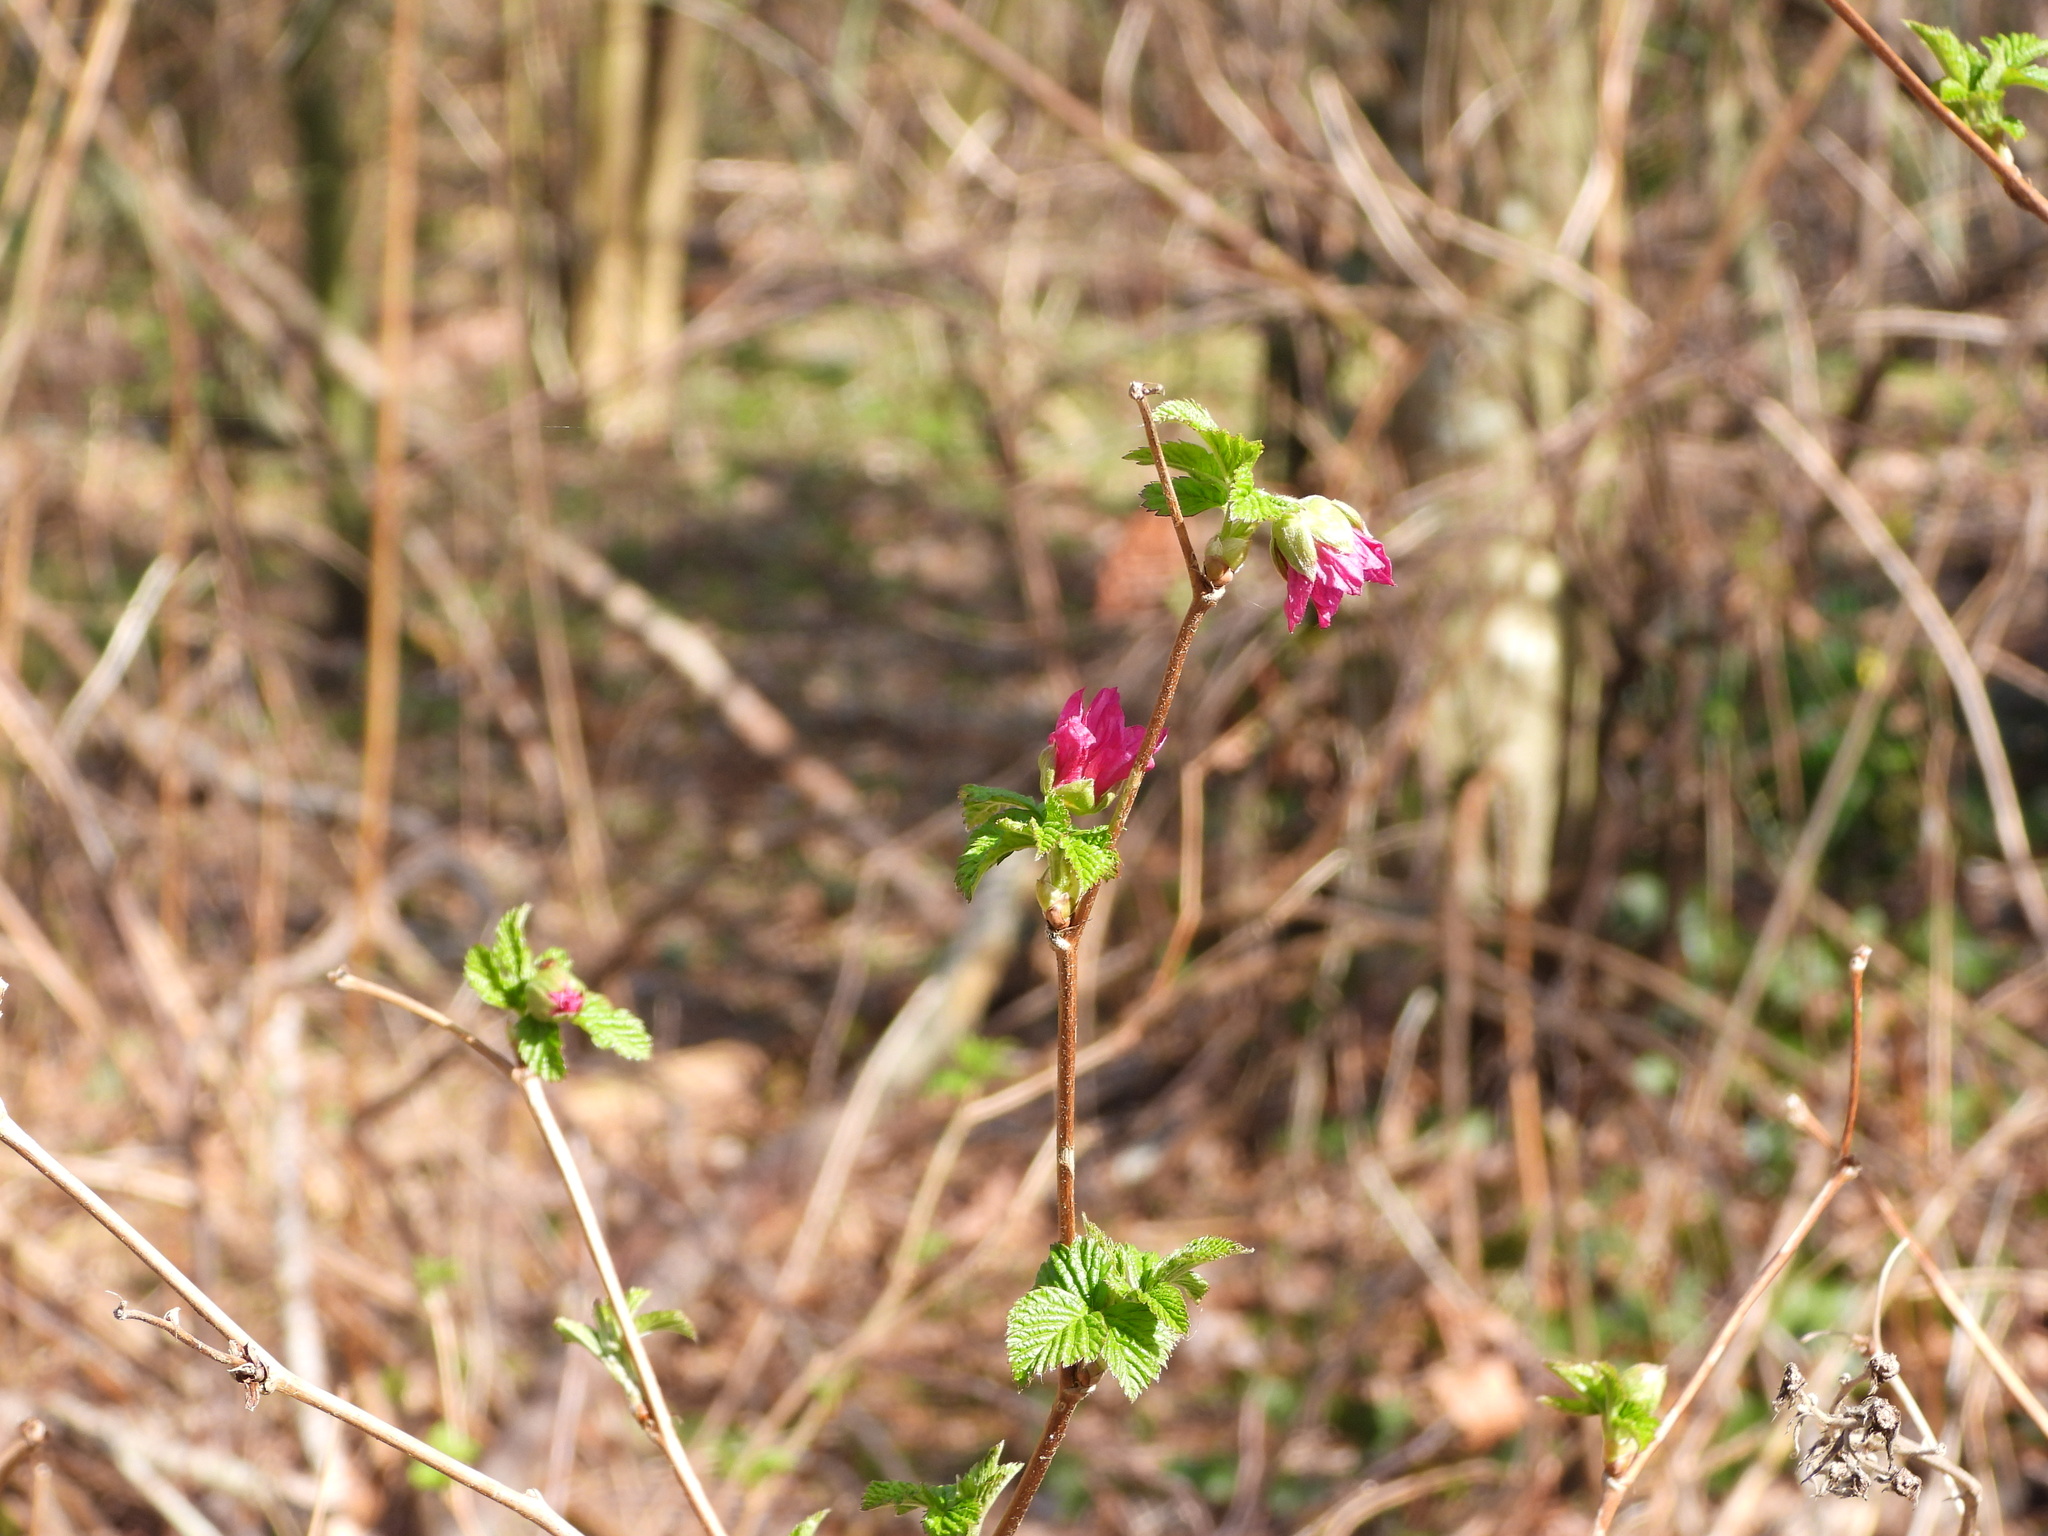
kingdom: Plantae
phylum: Tracheophyta
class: Magnoliopsida
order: Rosales
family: Rosaceae
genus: Rubus
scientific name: Rubus spectabilis
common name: Salmonberry
